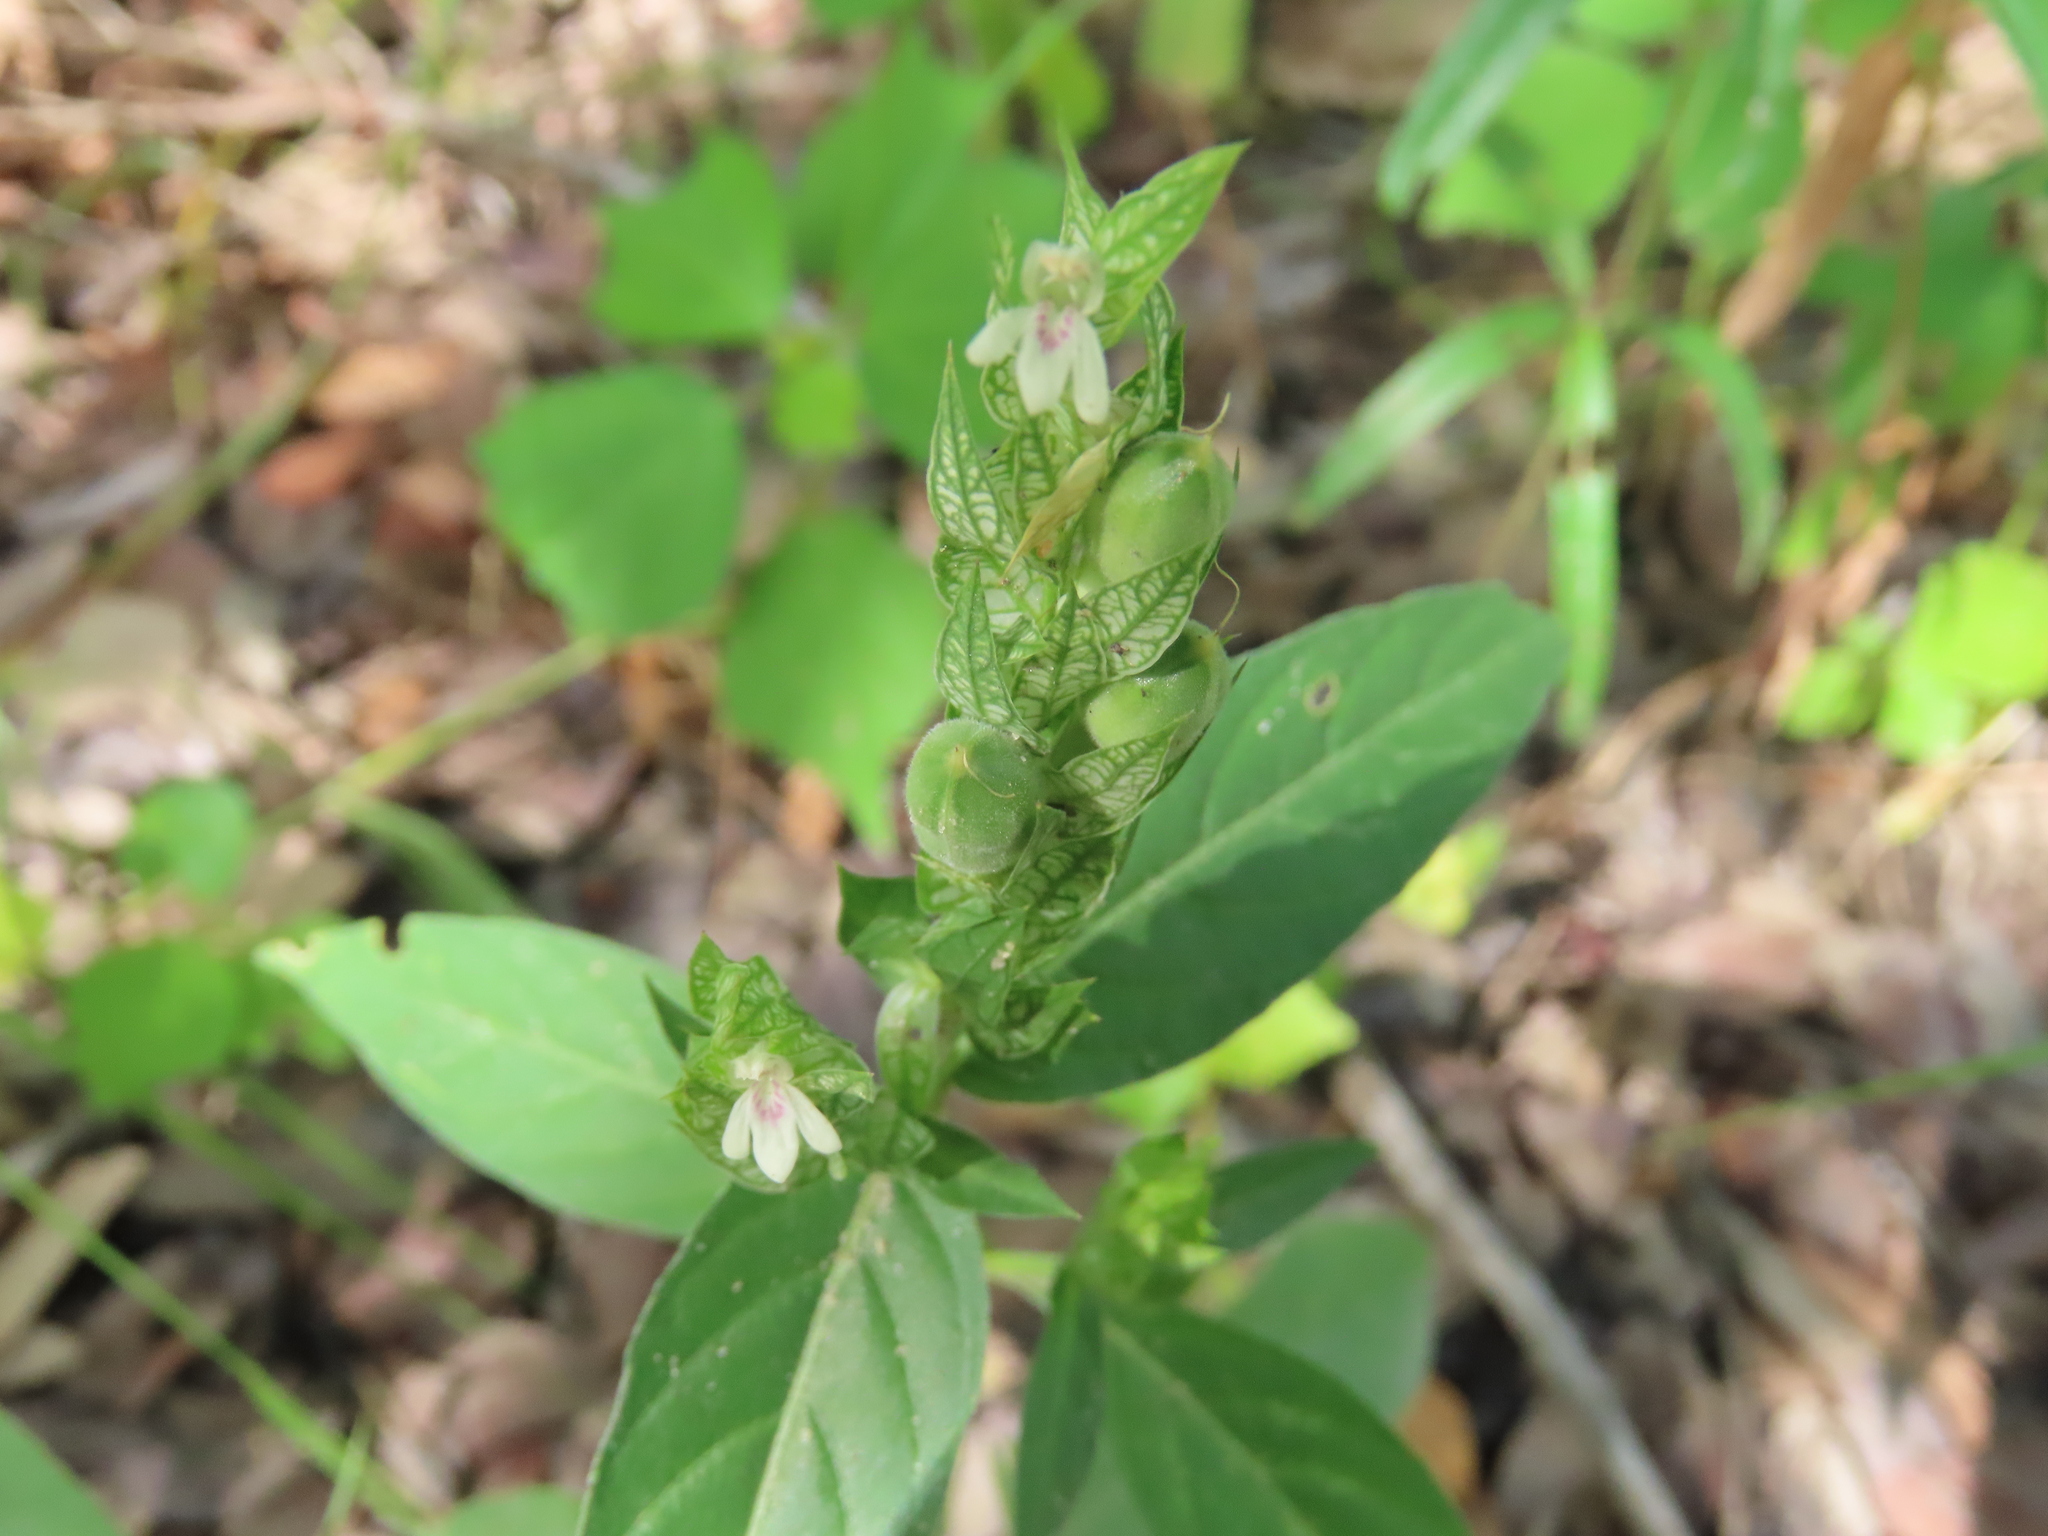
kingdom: Plantae
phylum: Tracheophyta
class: Magnoliopsida
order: Lamiales
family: Acanthaceae
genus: Justicia
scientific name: Justicia betonica
